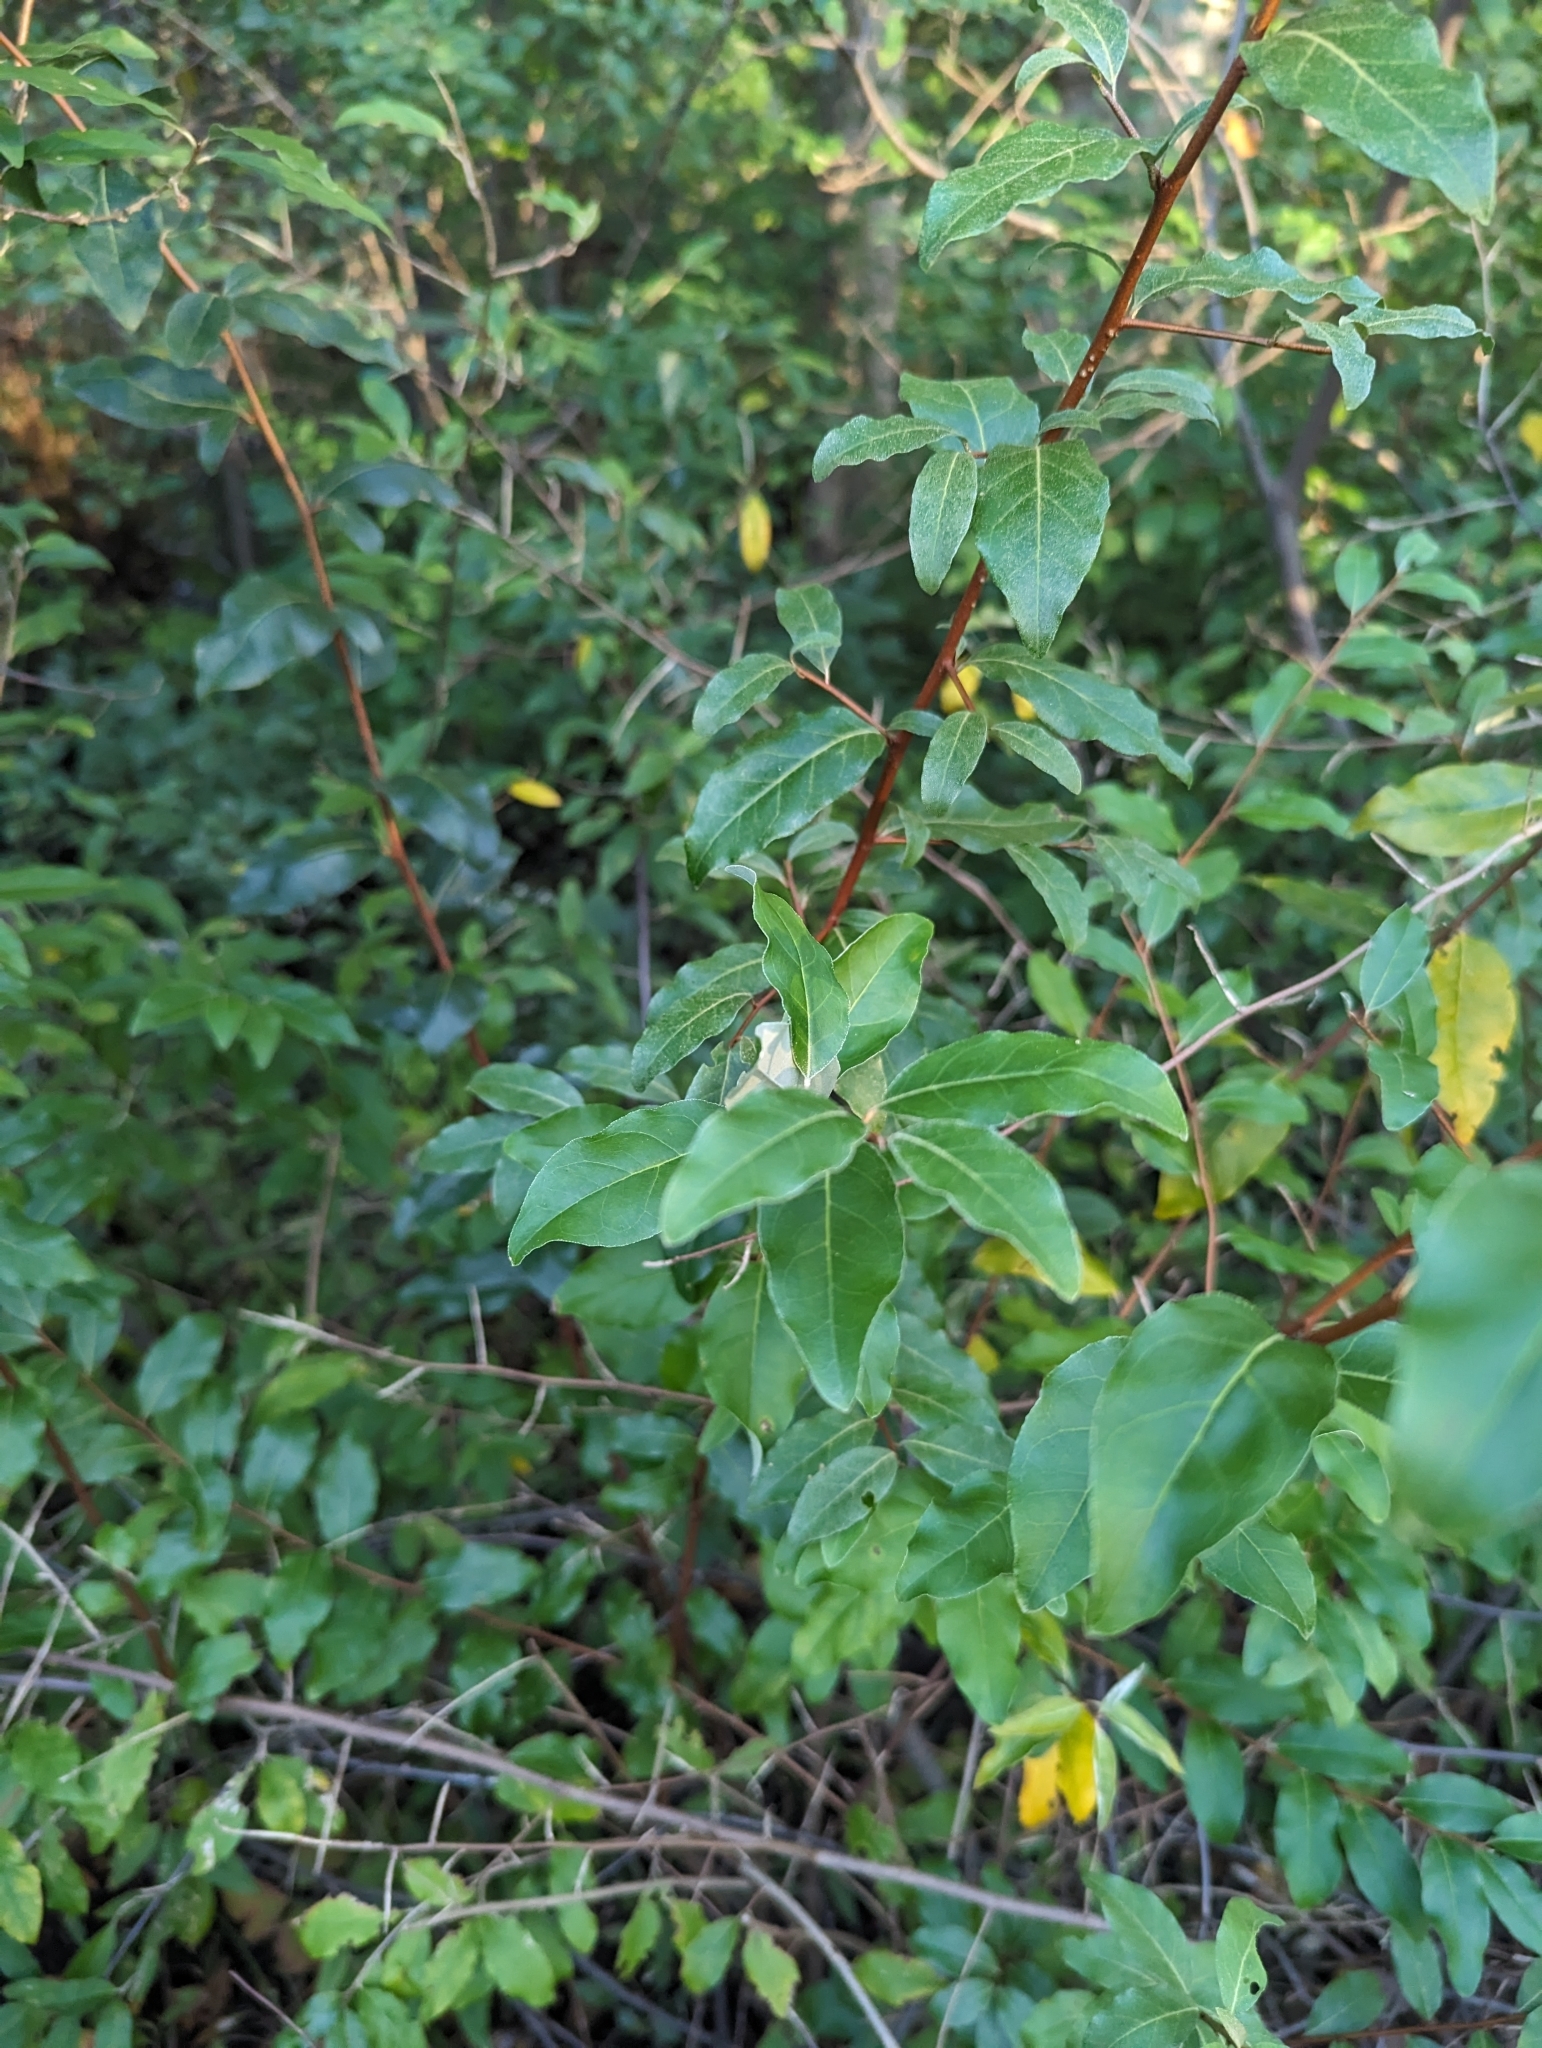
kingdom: Plantae
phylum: Tracheophyta
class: Magnoliopsida
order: Rosales
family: Elaeagnaceae
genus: Elaeagnus
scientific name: Elaeagnus umbellata
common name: Autumn olive
